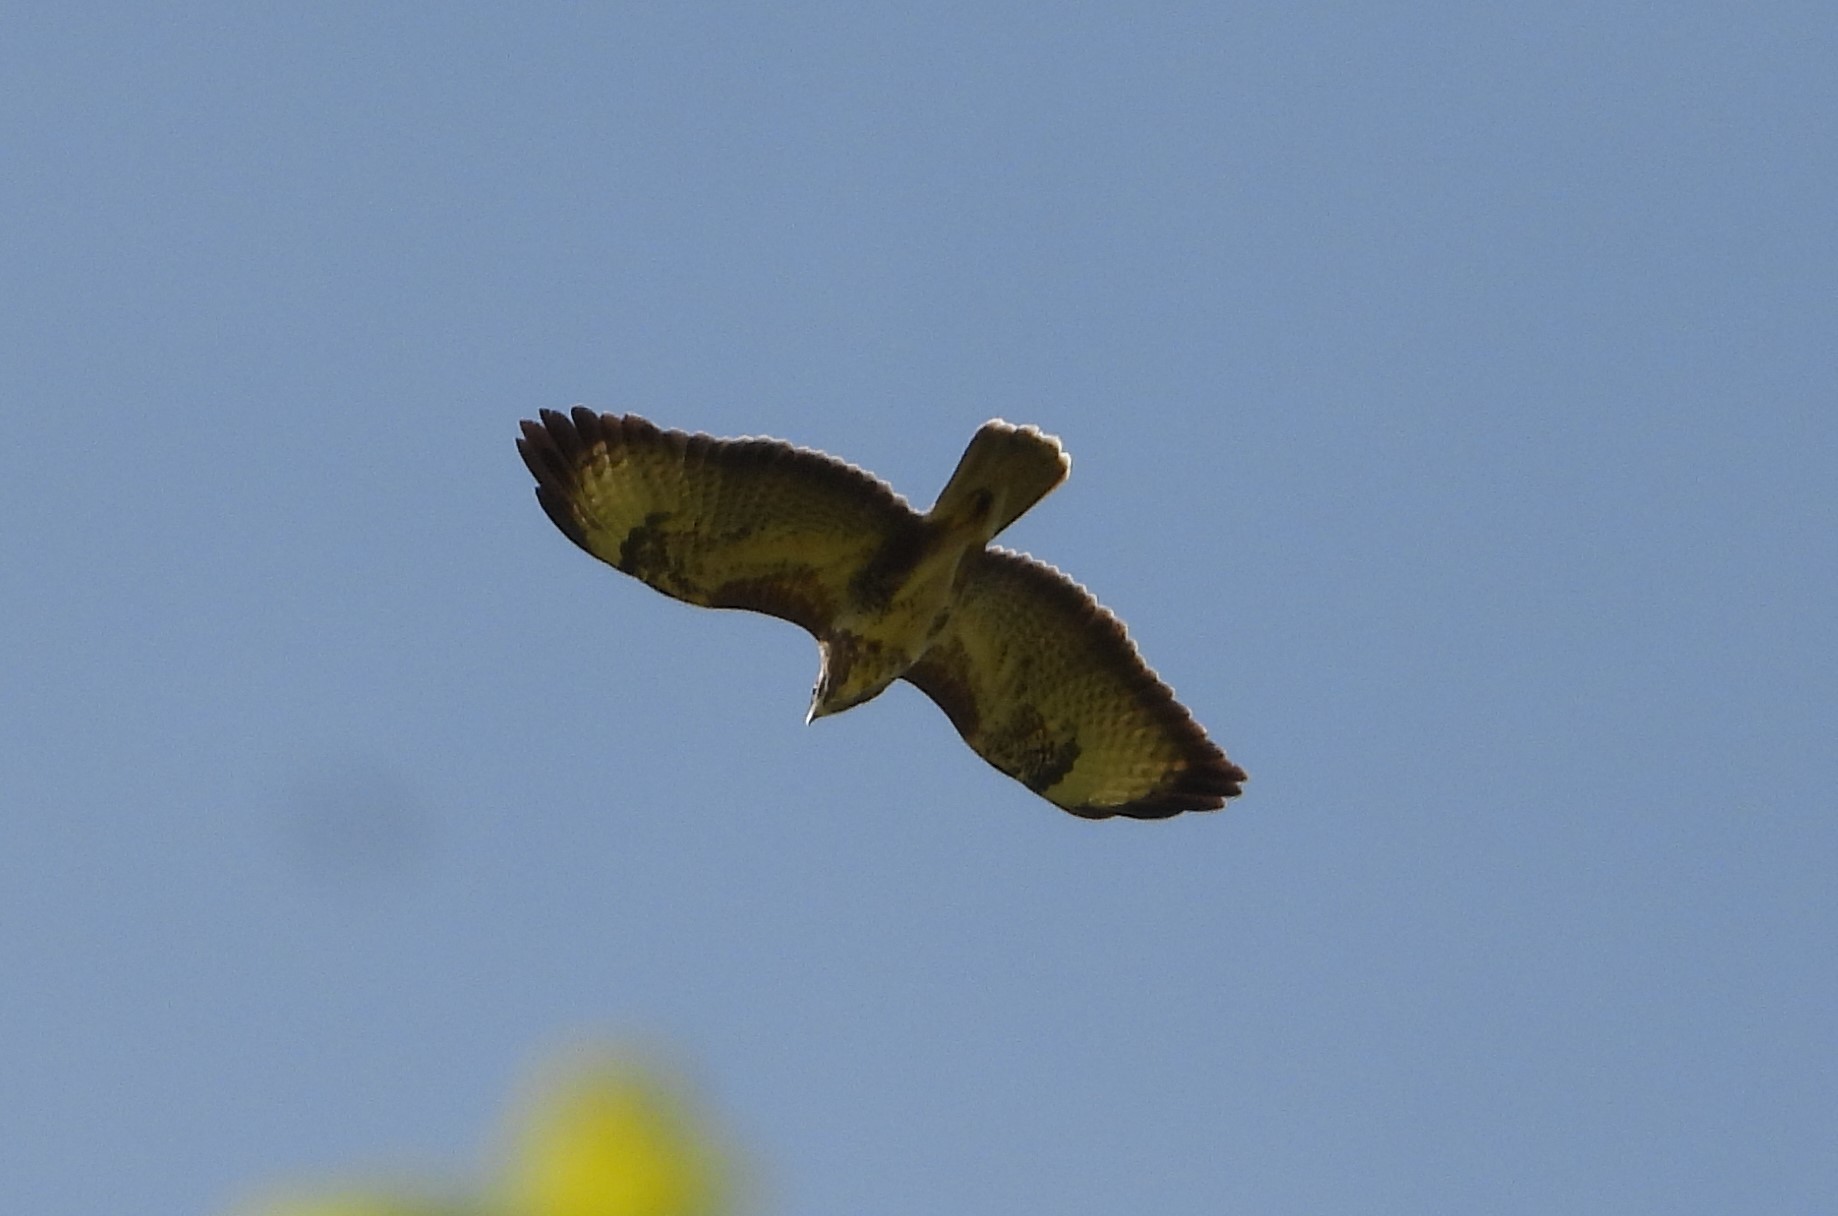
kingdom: Animalia
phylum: Chordata
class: Aves
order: Accipitriformes
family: Accipitridae
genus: Buteo
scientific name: Buteo buteo
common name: Common buzzard
